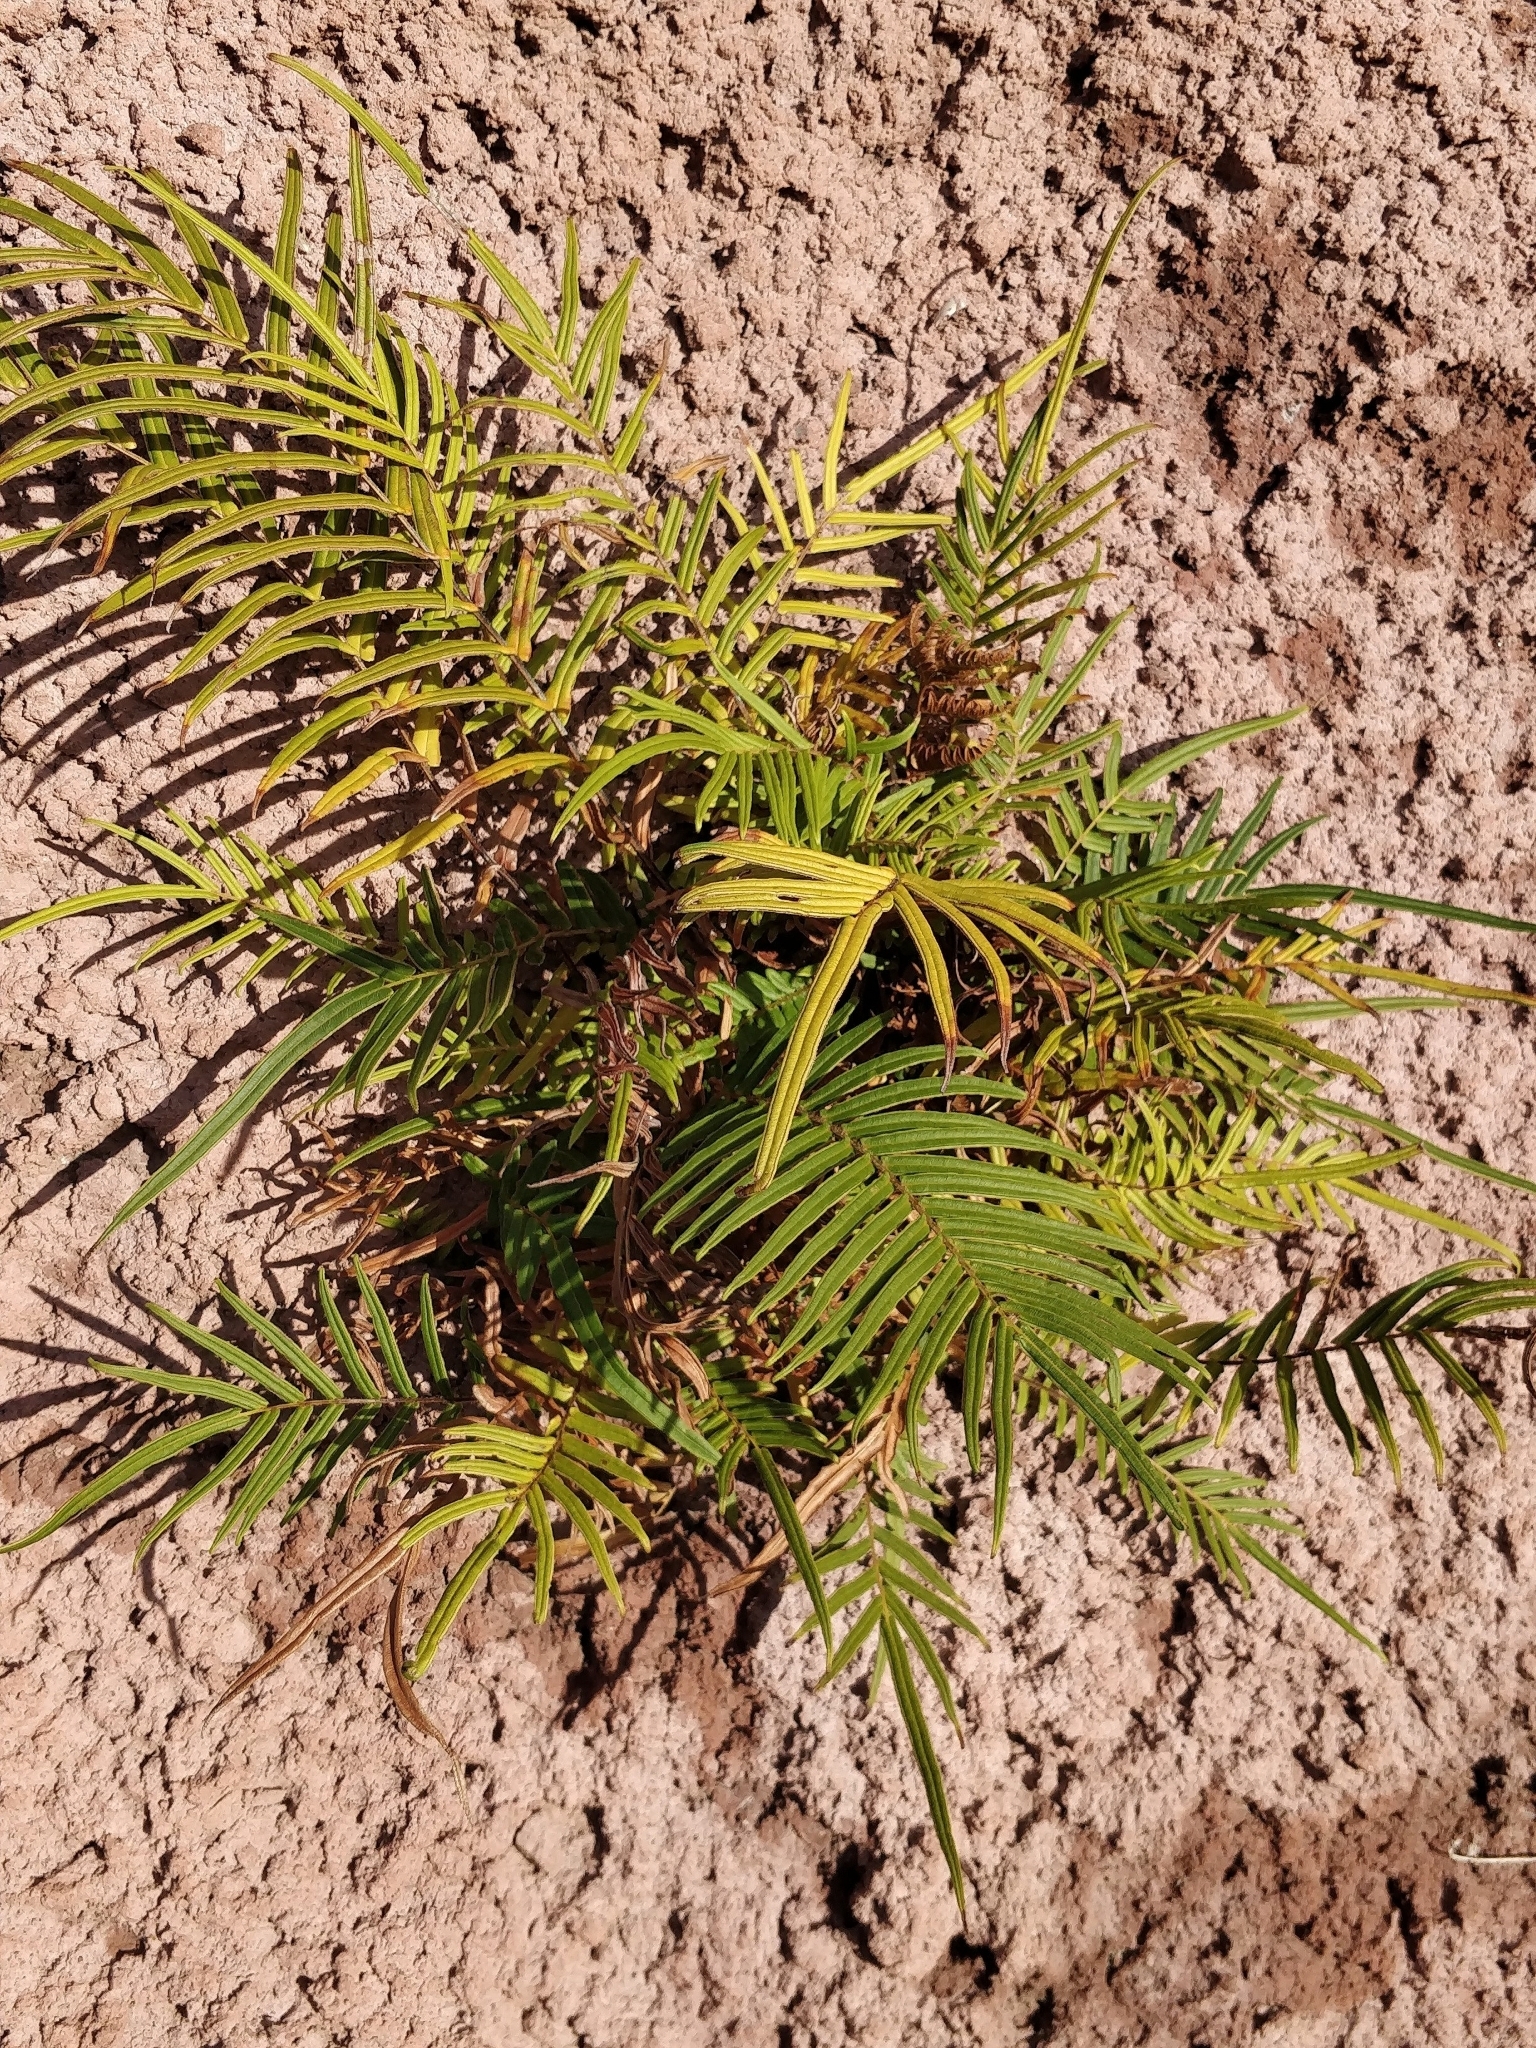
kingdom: Plantae
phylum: Tracheophyta
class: Polypodiopsida
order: Polypodiales
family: Pteridaceae
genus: Pteris
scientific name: Pteris vittata
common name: Ladder brake
